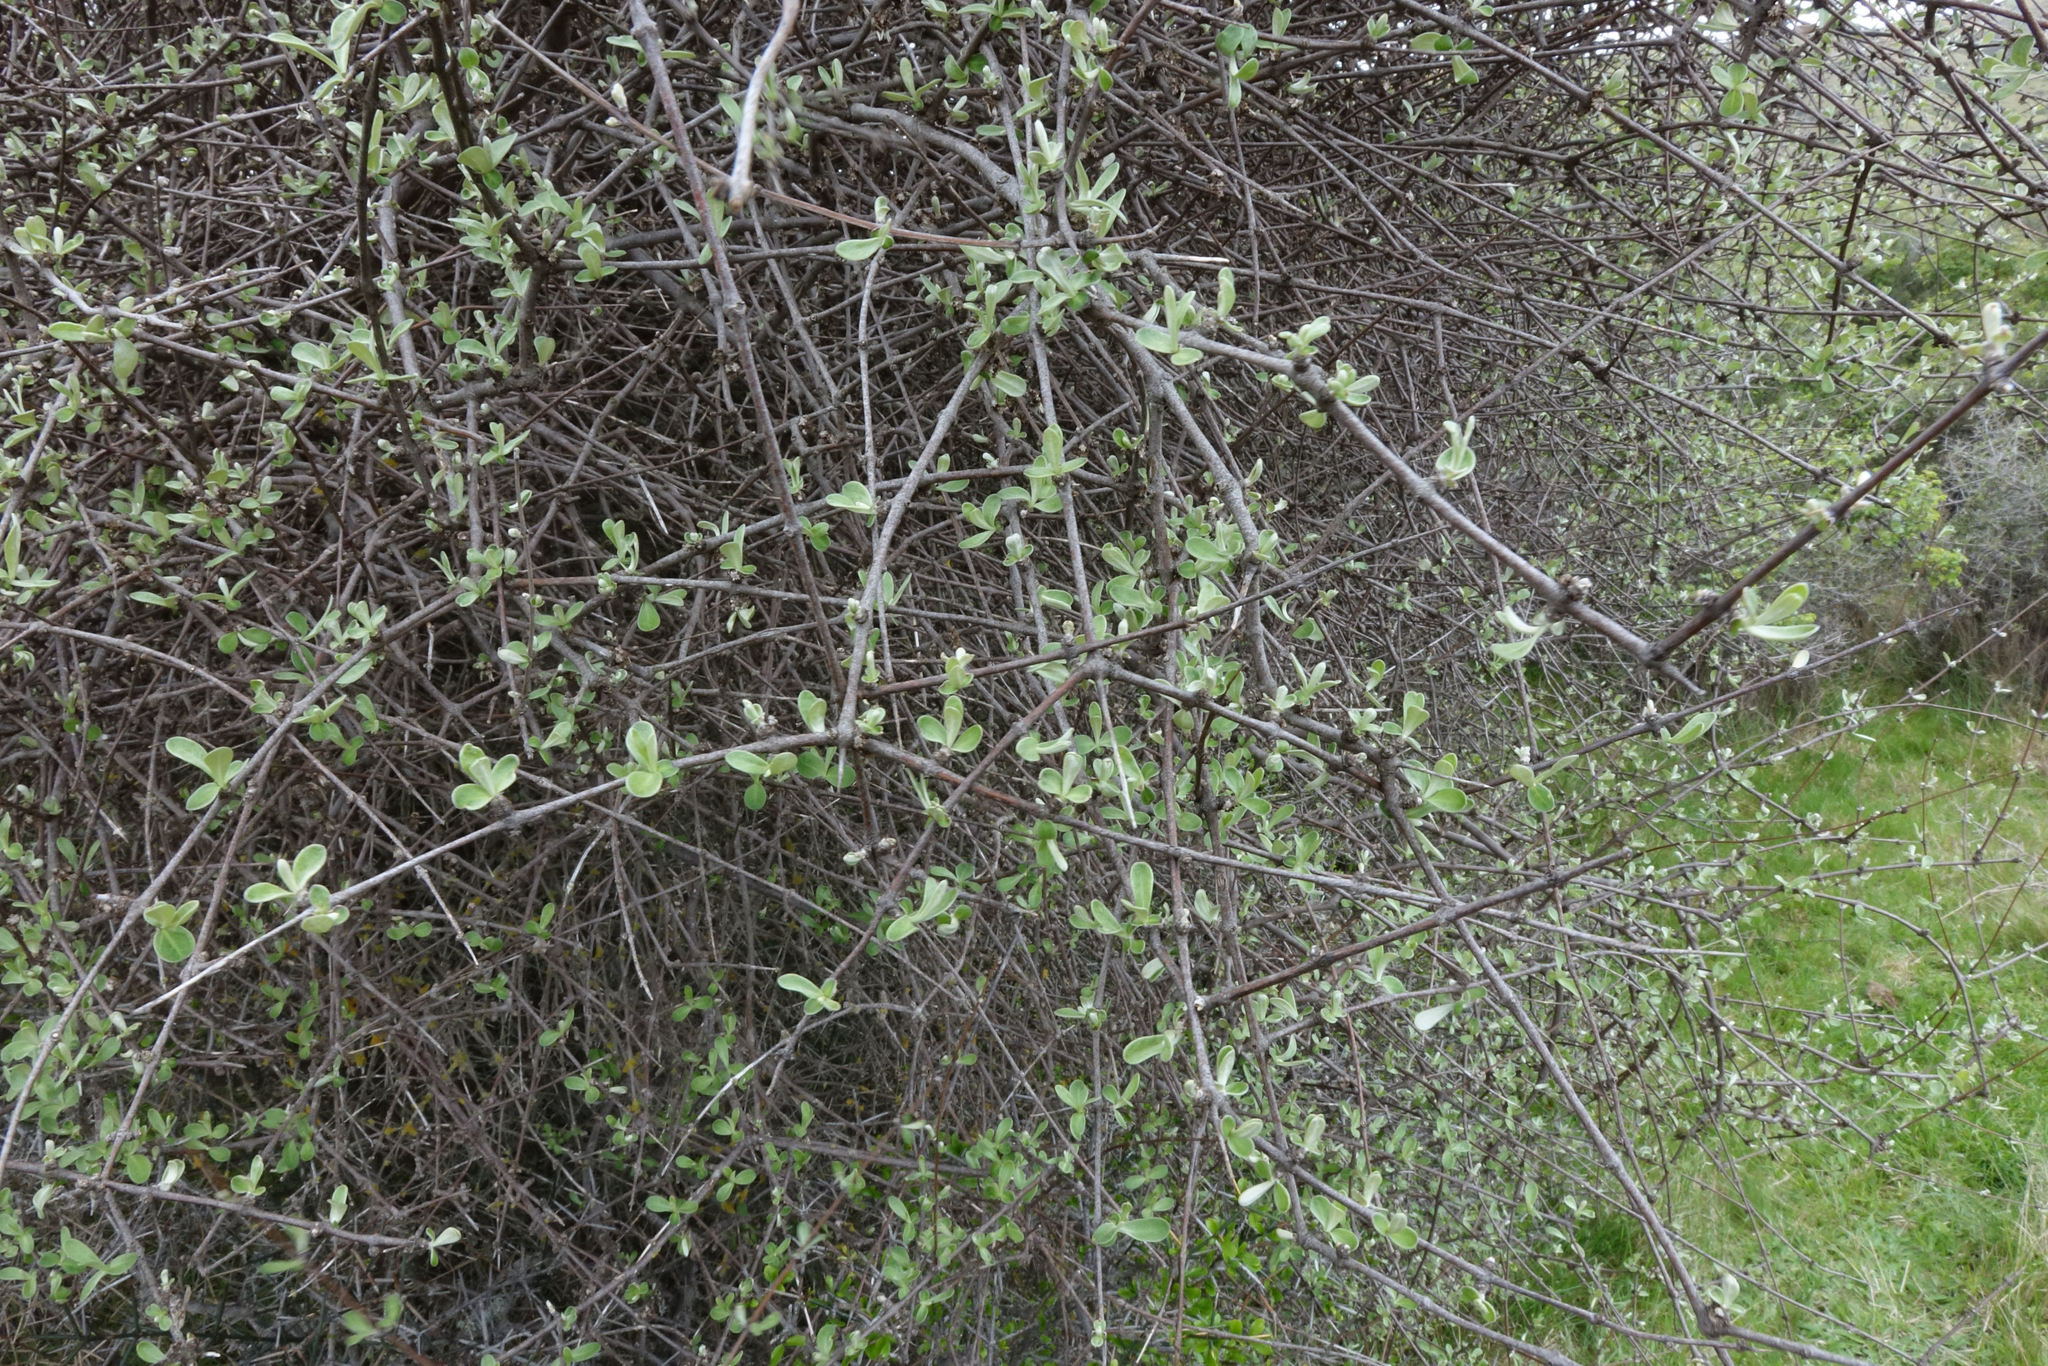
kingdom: Plantae
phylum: Tracheophyta
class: Magnoliopsida
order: Asterales
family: Asteraceae
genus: Olearia
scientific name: Olearia odorata
